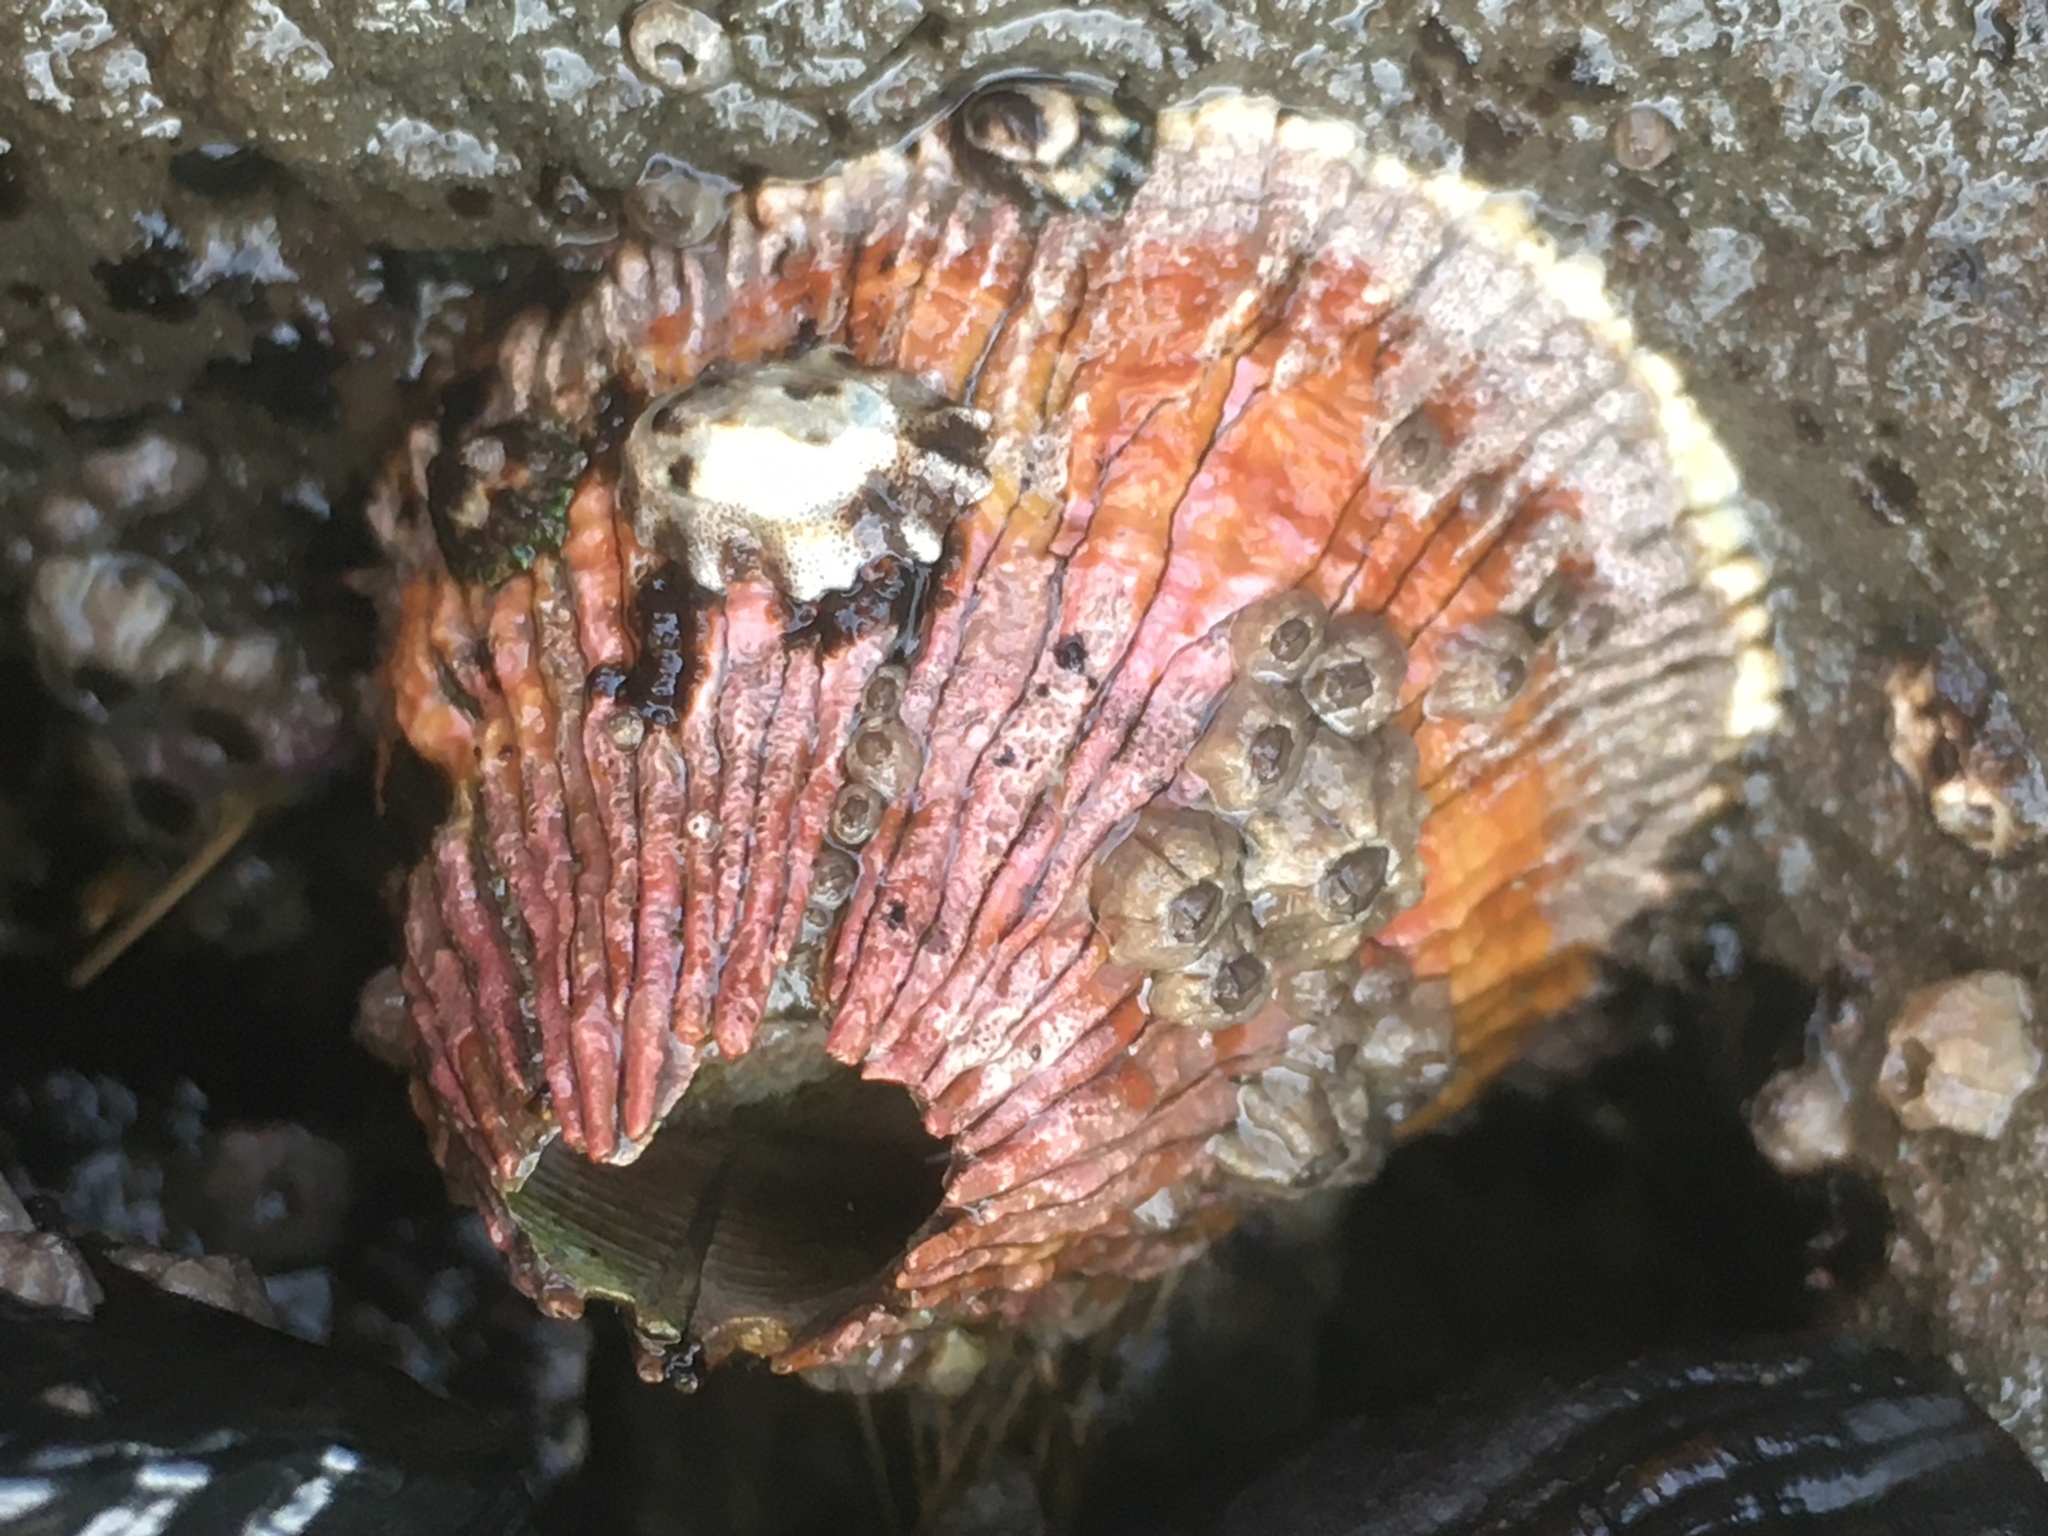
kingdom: Animalia
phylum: Arthropoda
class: Maxillopoda
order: Sessilia
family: Tetraclitidae
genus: Tetraclita
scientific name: Tetraclita rubescens
